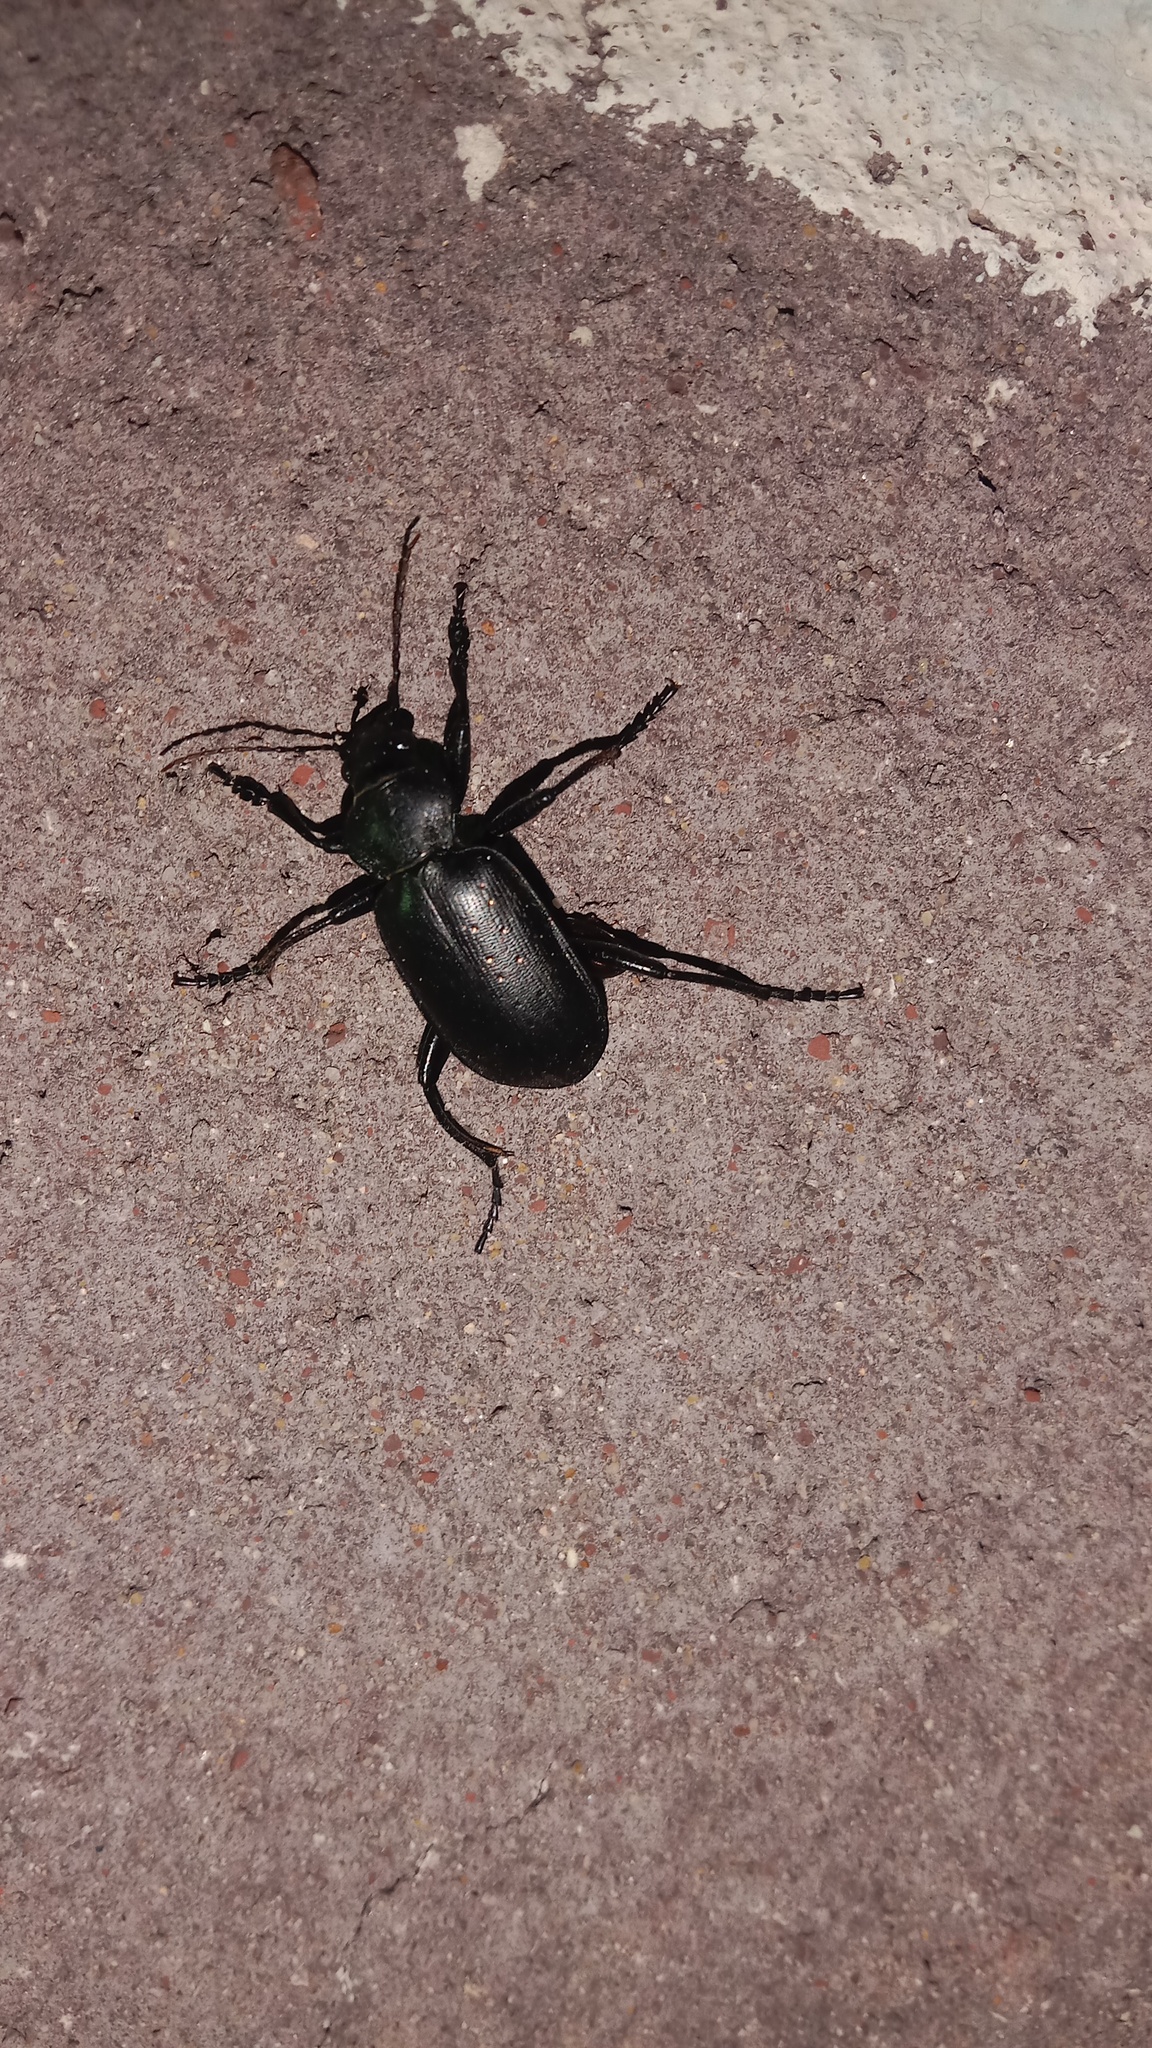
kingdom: Animalia
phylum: Arthropoda
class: Insecta
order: Coleoptera
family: Carabidae
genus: Calosoma
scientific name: Calosoma maderae
